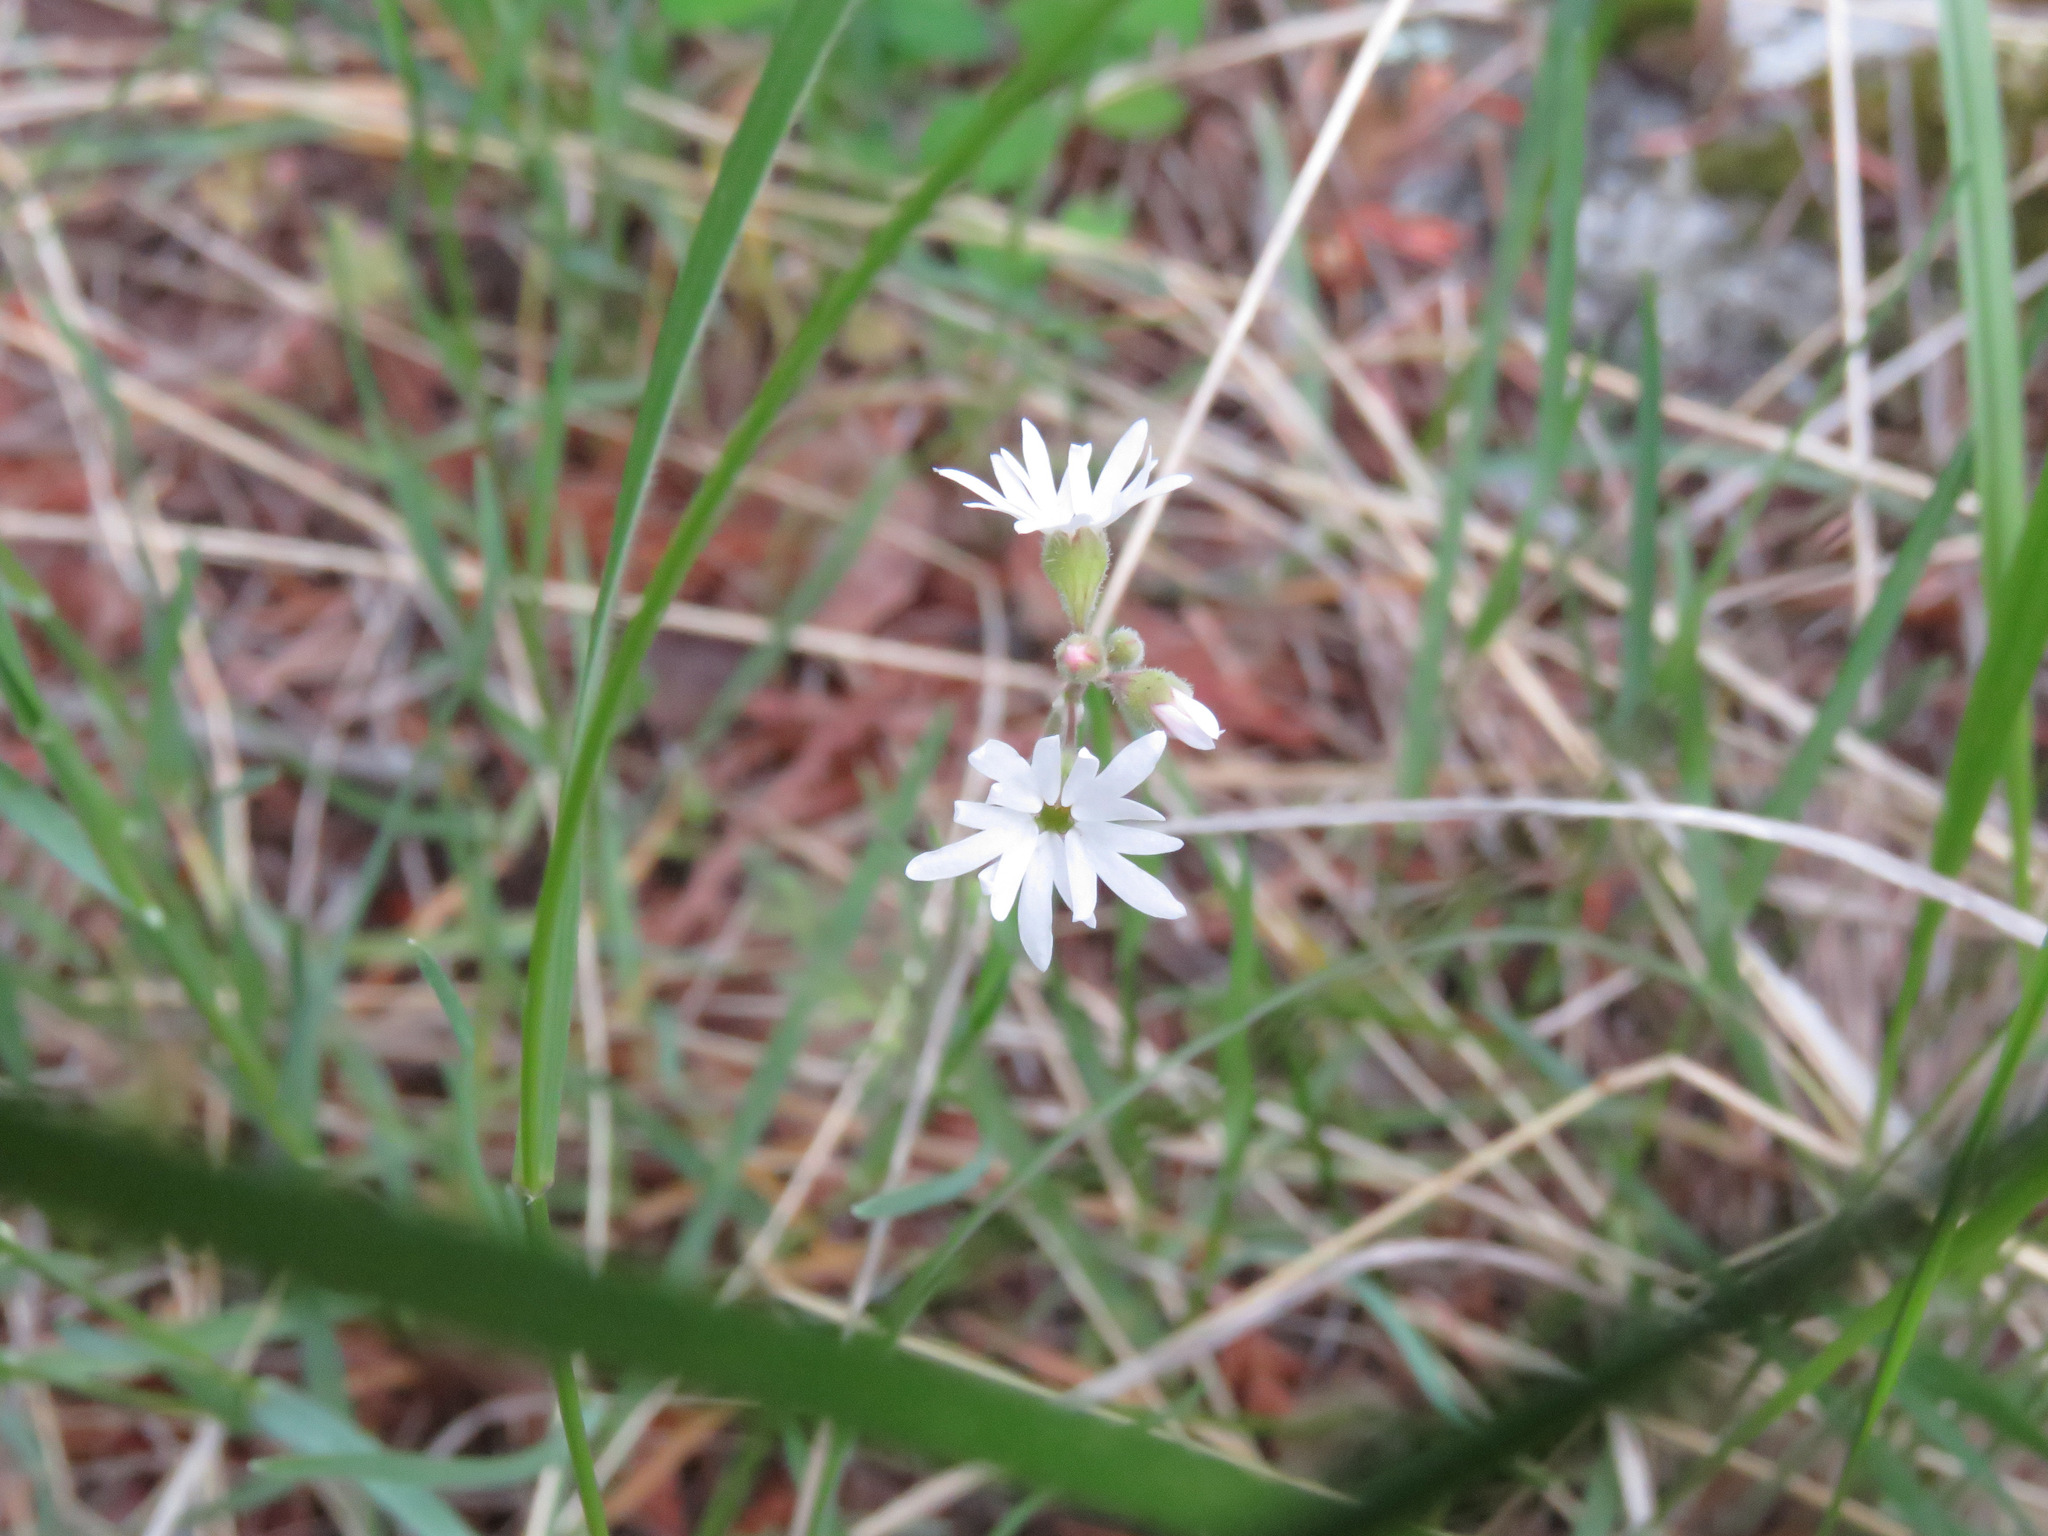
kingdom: Plantae
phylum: Tracheophyta
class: Magnoliopsida
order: Saxifragales
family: Saxifragaceae
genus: Lithophragma
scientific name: Lithophragma parviflorum
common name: Small-flowered fringe-cup
